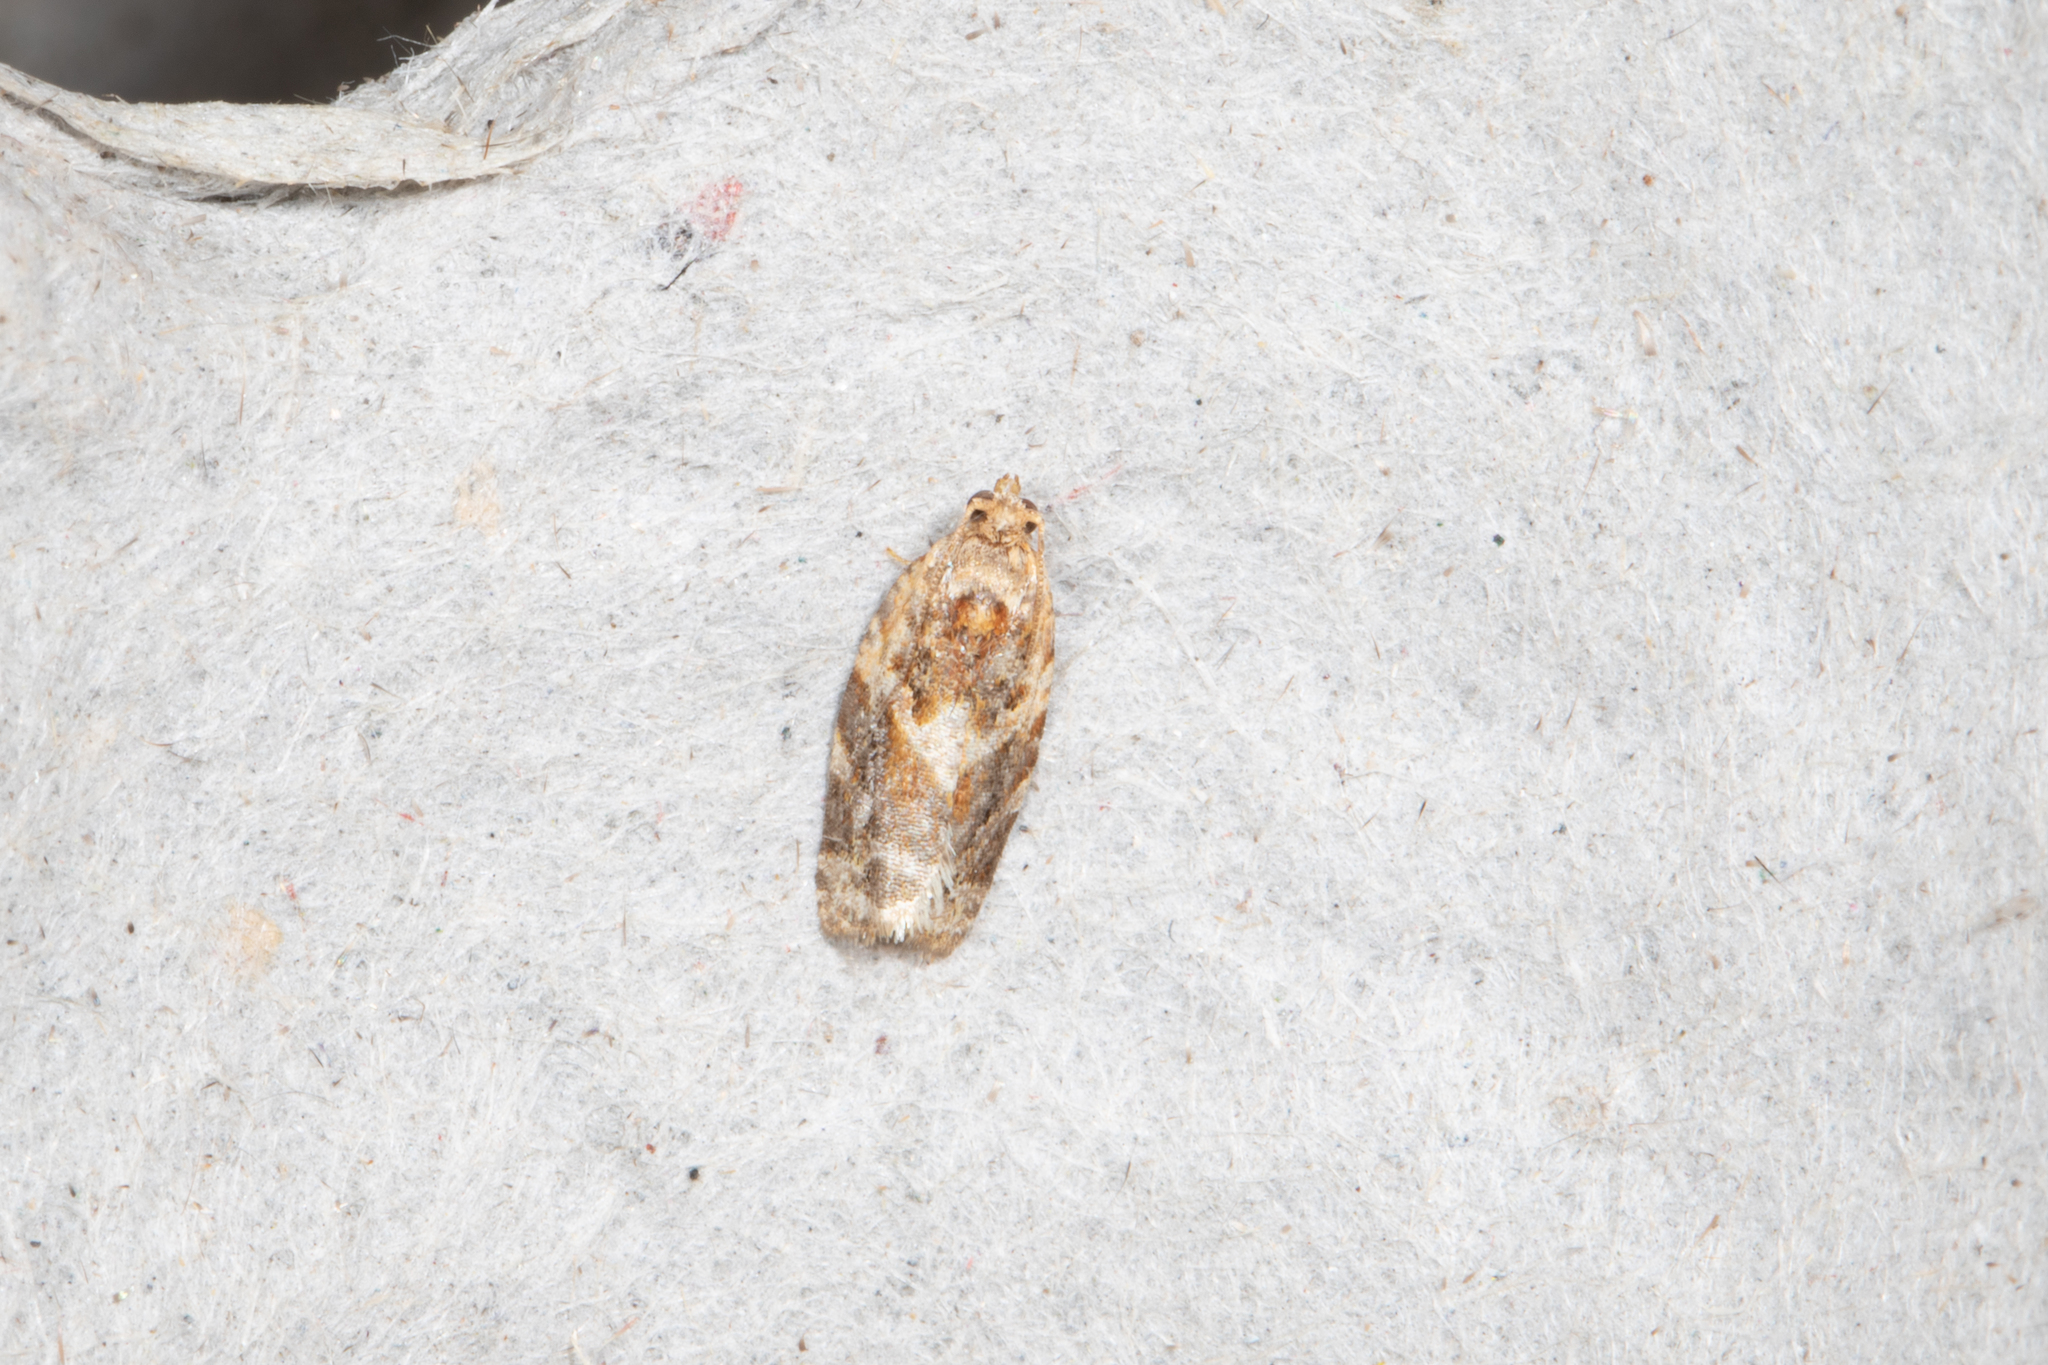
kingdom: Animalia
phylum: Arthropoda
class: Insecta
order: Lepidoptera
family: Tortricidae
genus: Argyrotaenia
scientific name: Argyrotaenia velutinana
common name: Red-banded leafroller moth
